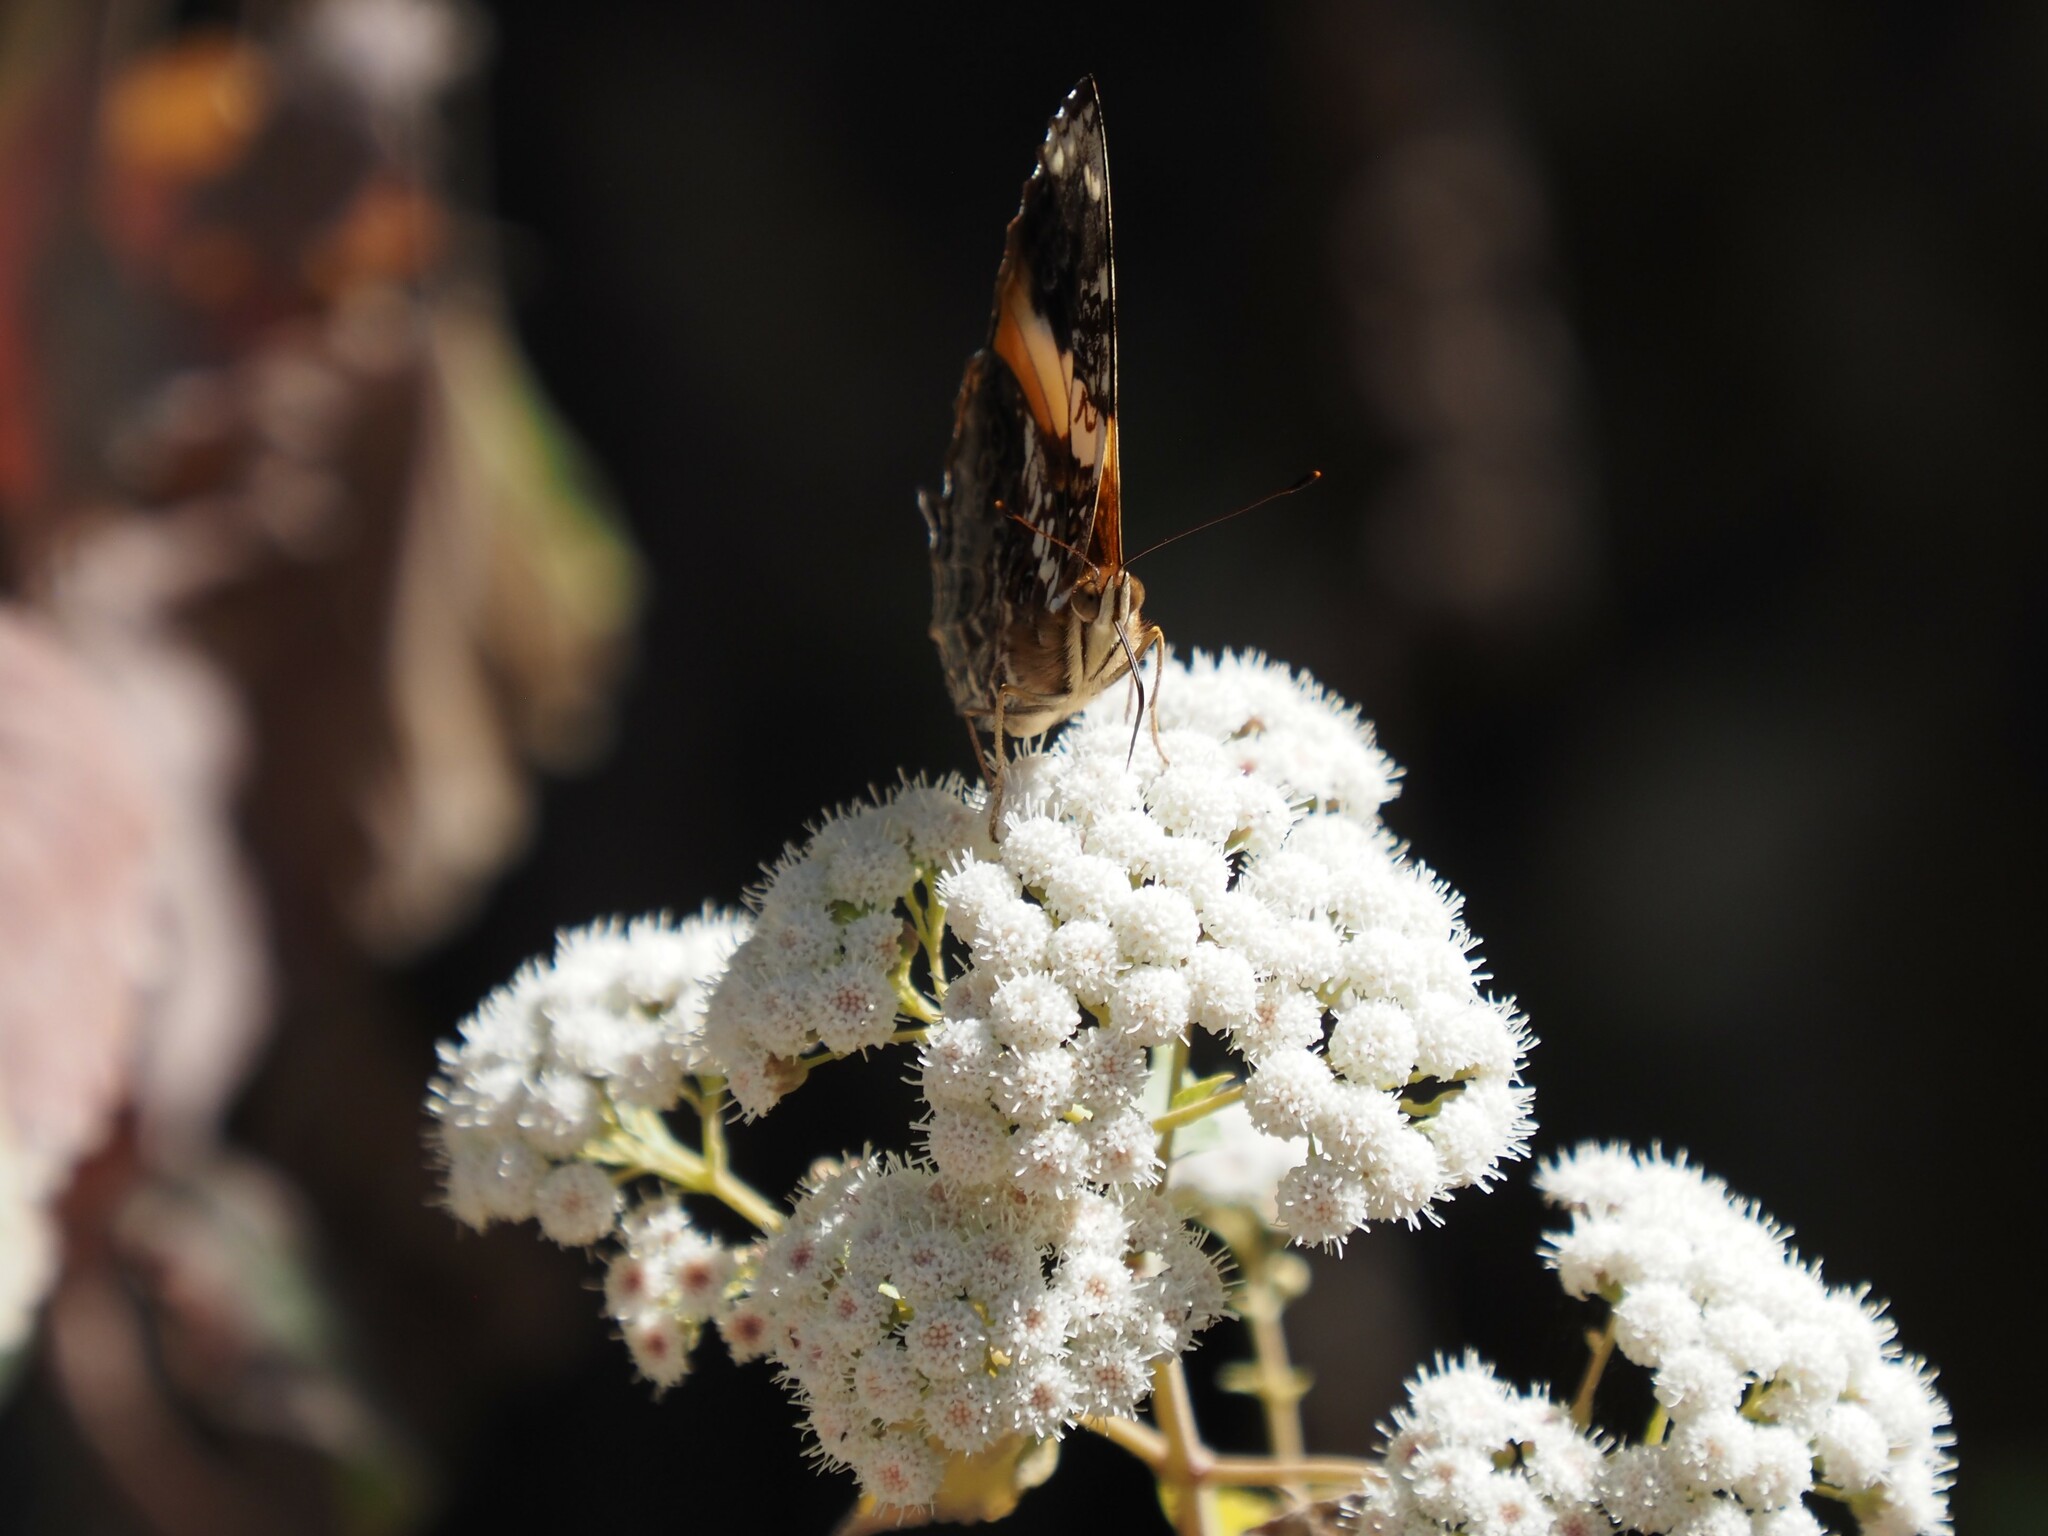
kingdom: Animalia
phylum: Arthropoda
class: Insecta
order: Lepidoptera
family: Nymphalidae
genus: Hypanartia
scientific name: Hypanartia godmanii
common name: Godman's mapwing
